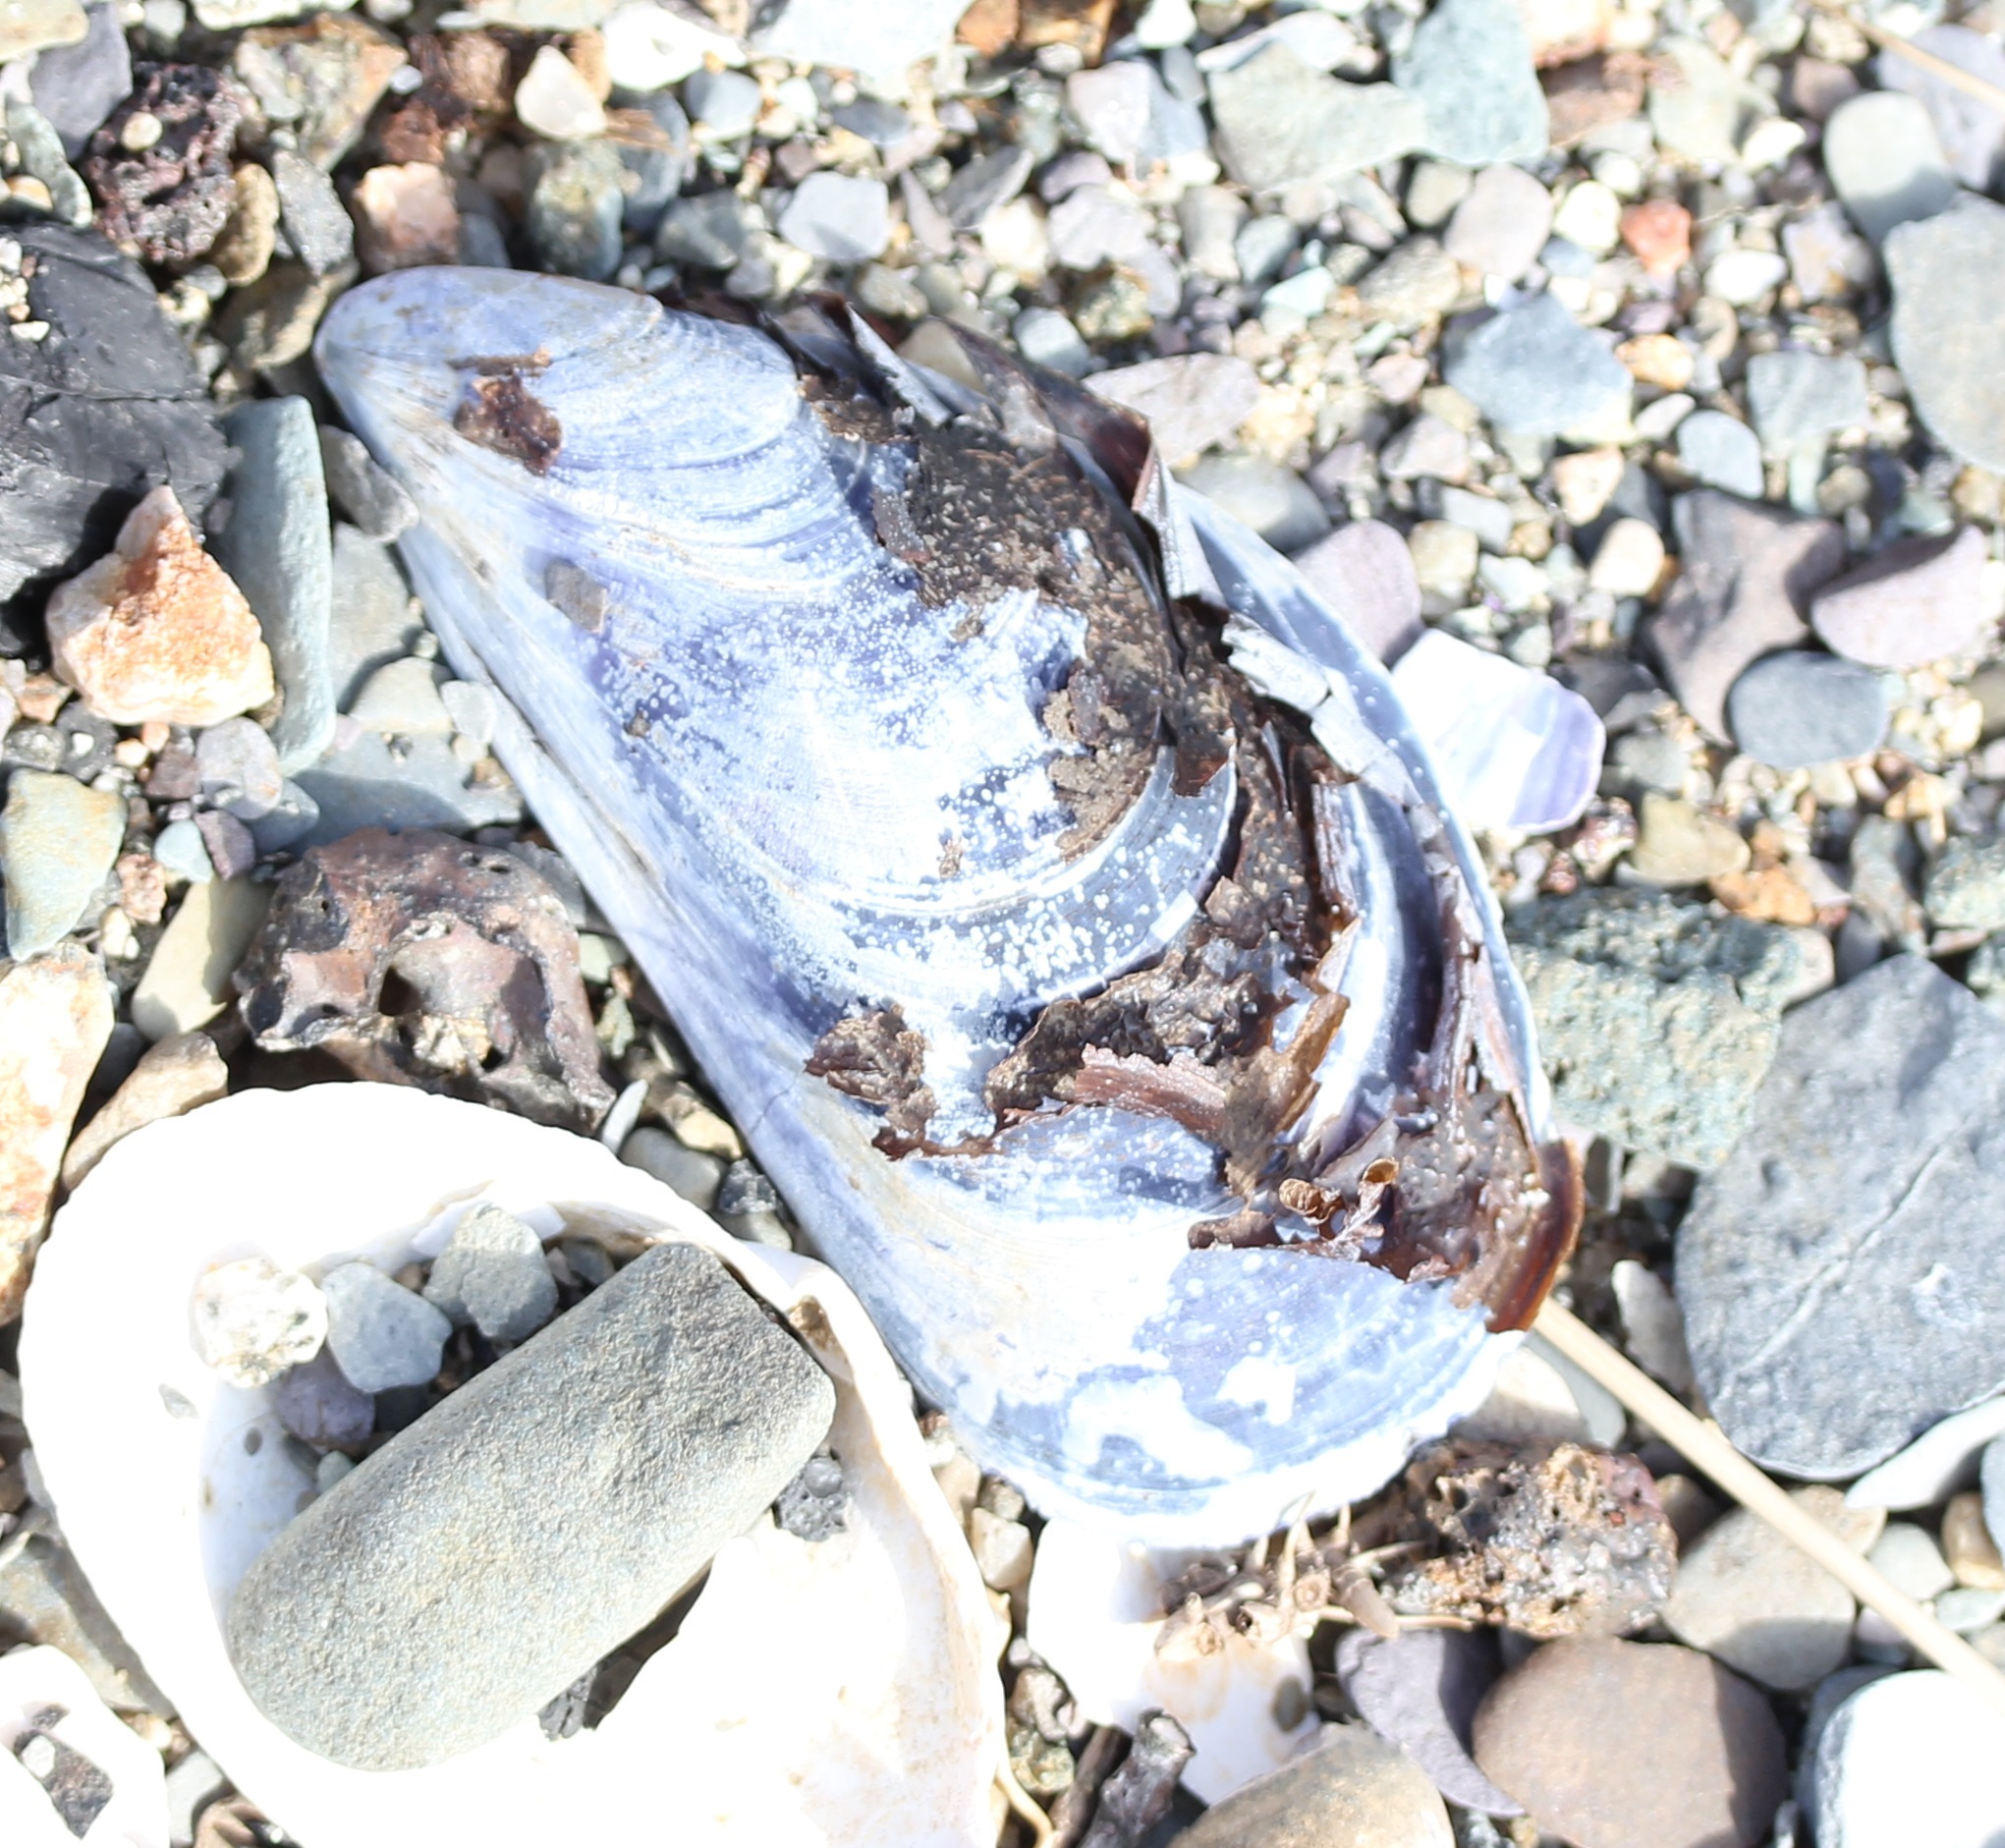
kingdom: Animalia
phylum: Mollusca
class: Bivalvia
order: Mytilida
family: Mytilidae
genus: Mytilus
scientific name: Mytilus edulis
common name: Blue mussel
